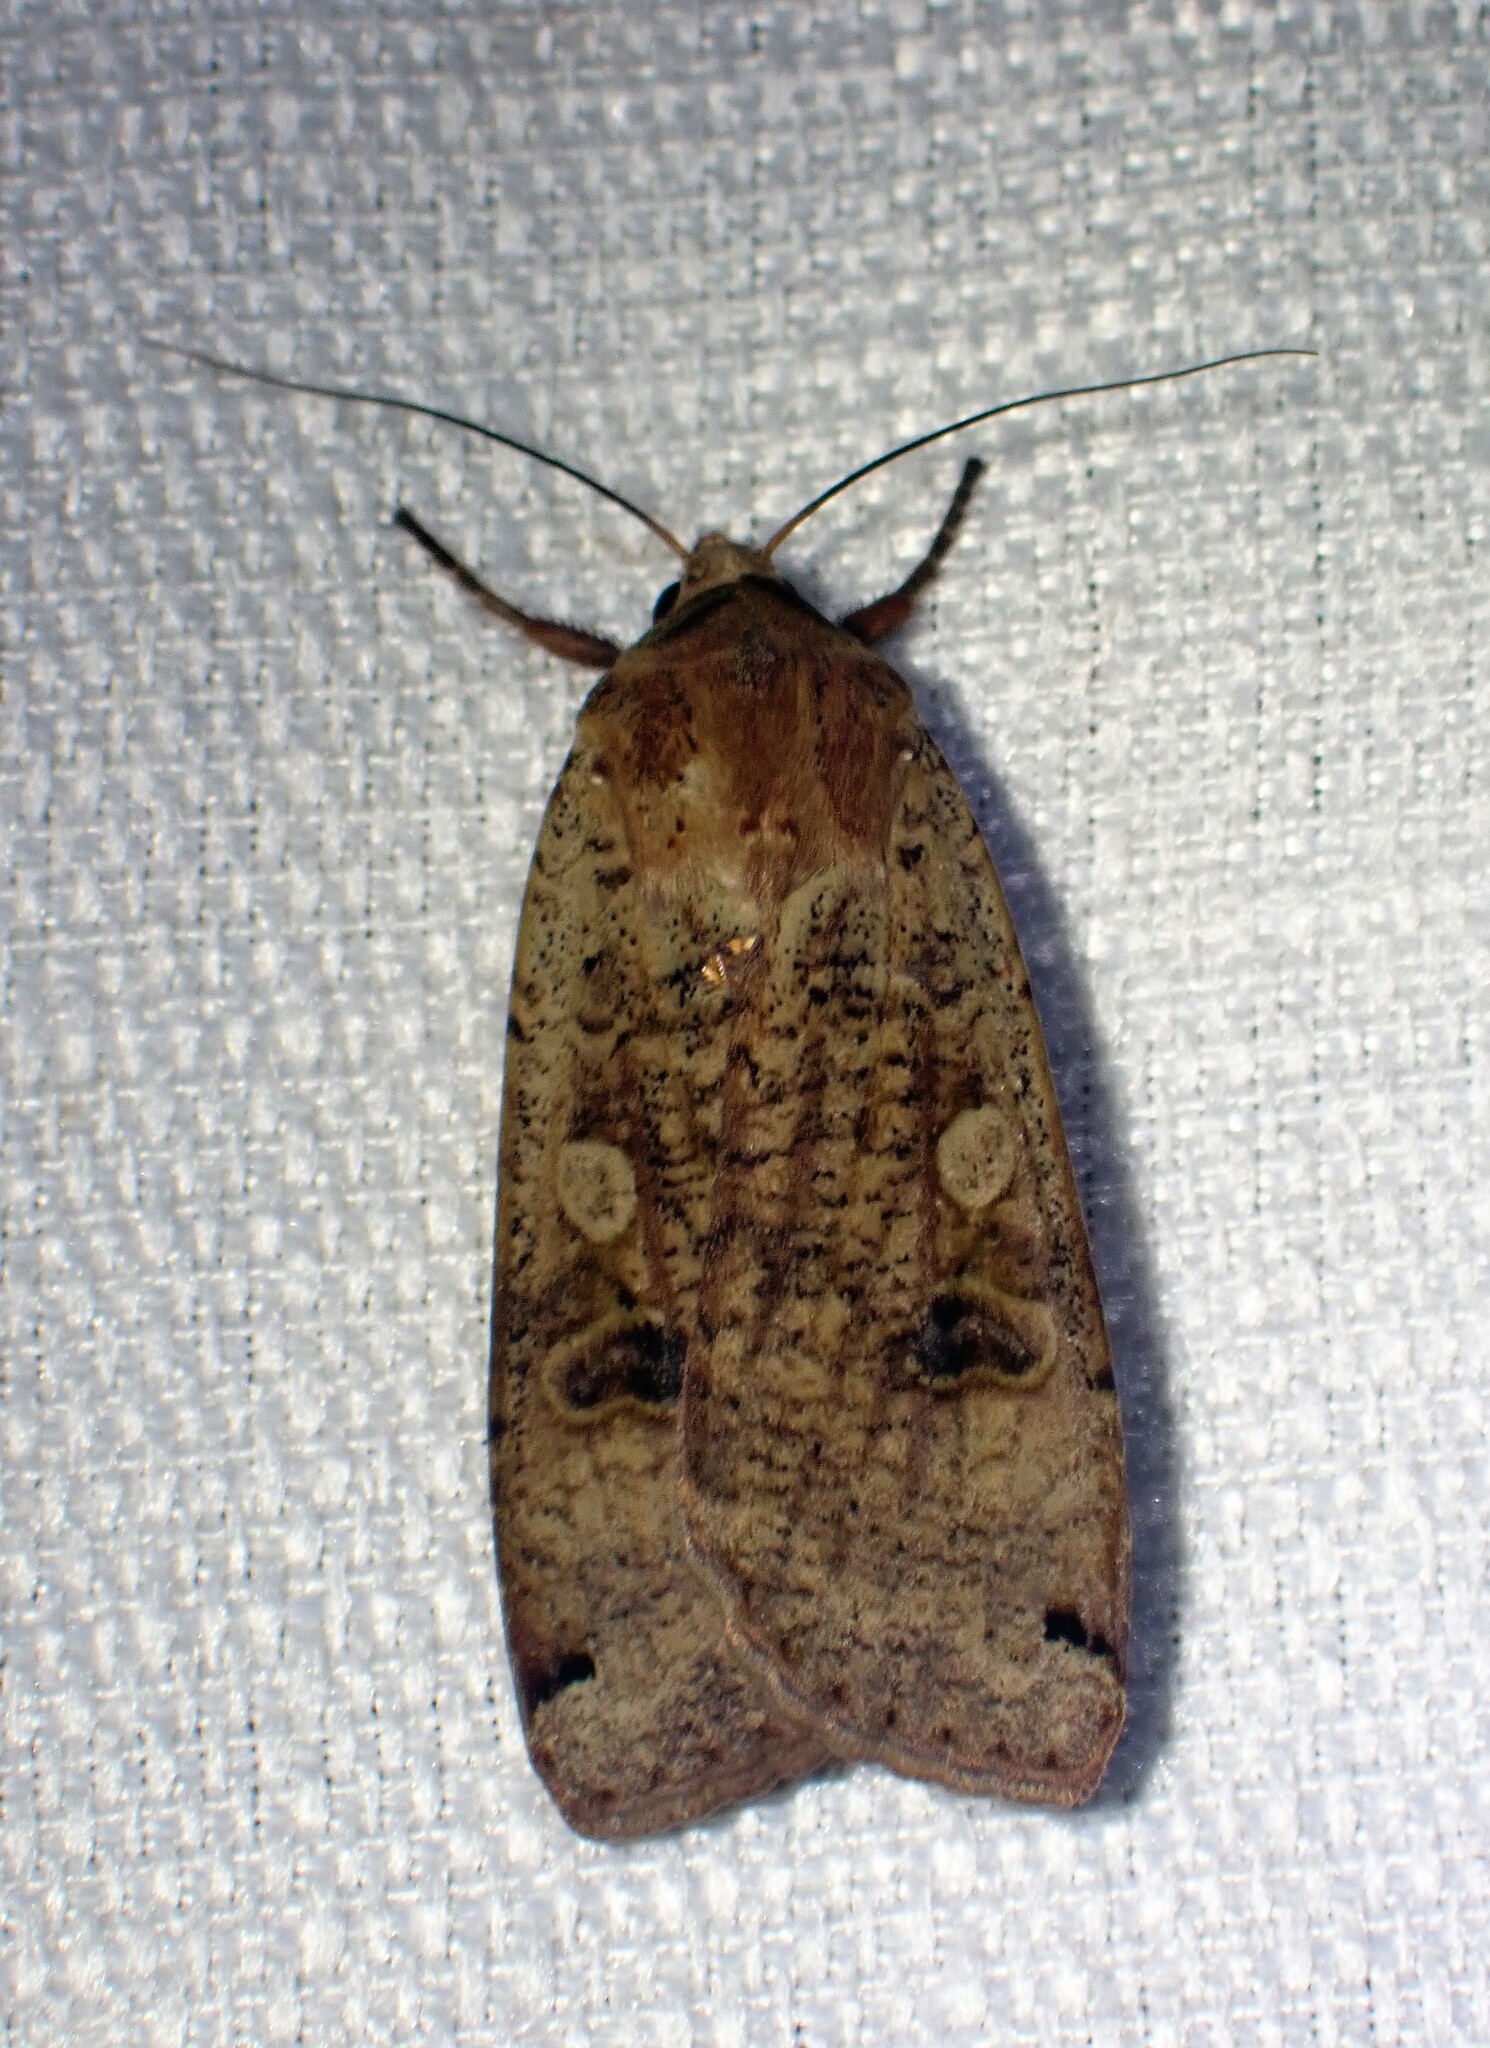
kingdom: Animalia
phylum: Arthropoda
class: Insecta
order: Lepidoptera
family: Noctuidae
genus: Noctua
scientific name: Noctua pronuba
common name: Large yellow underwing
